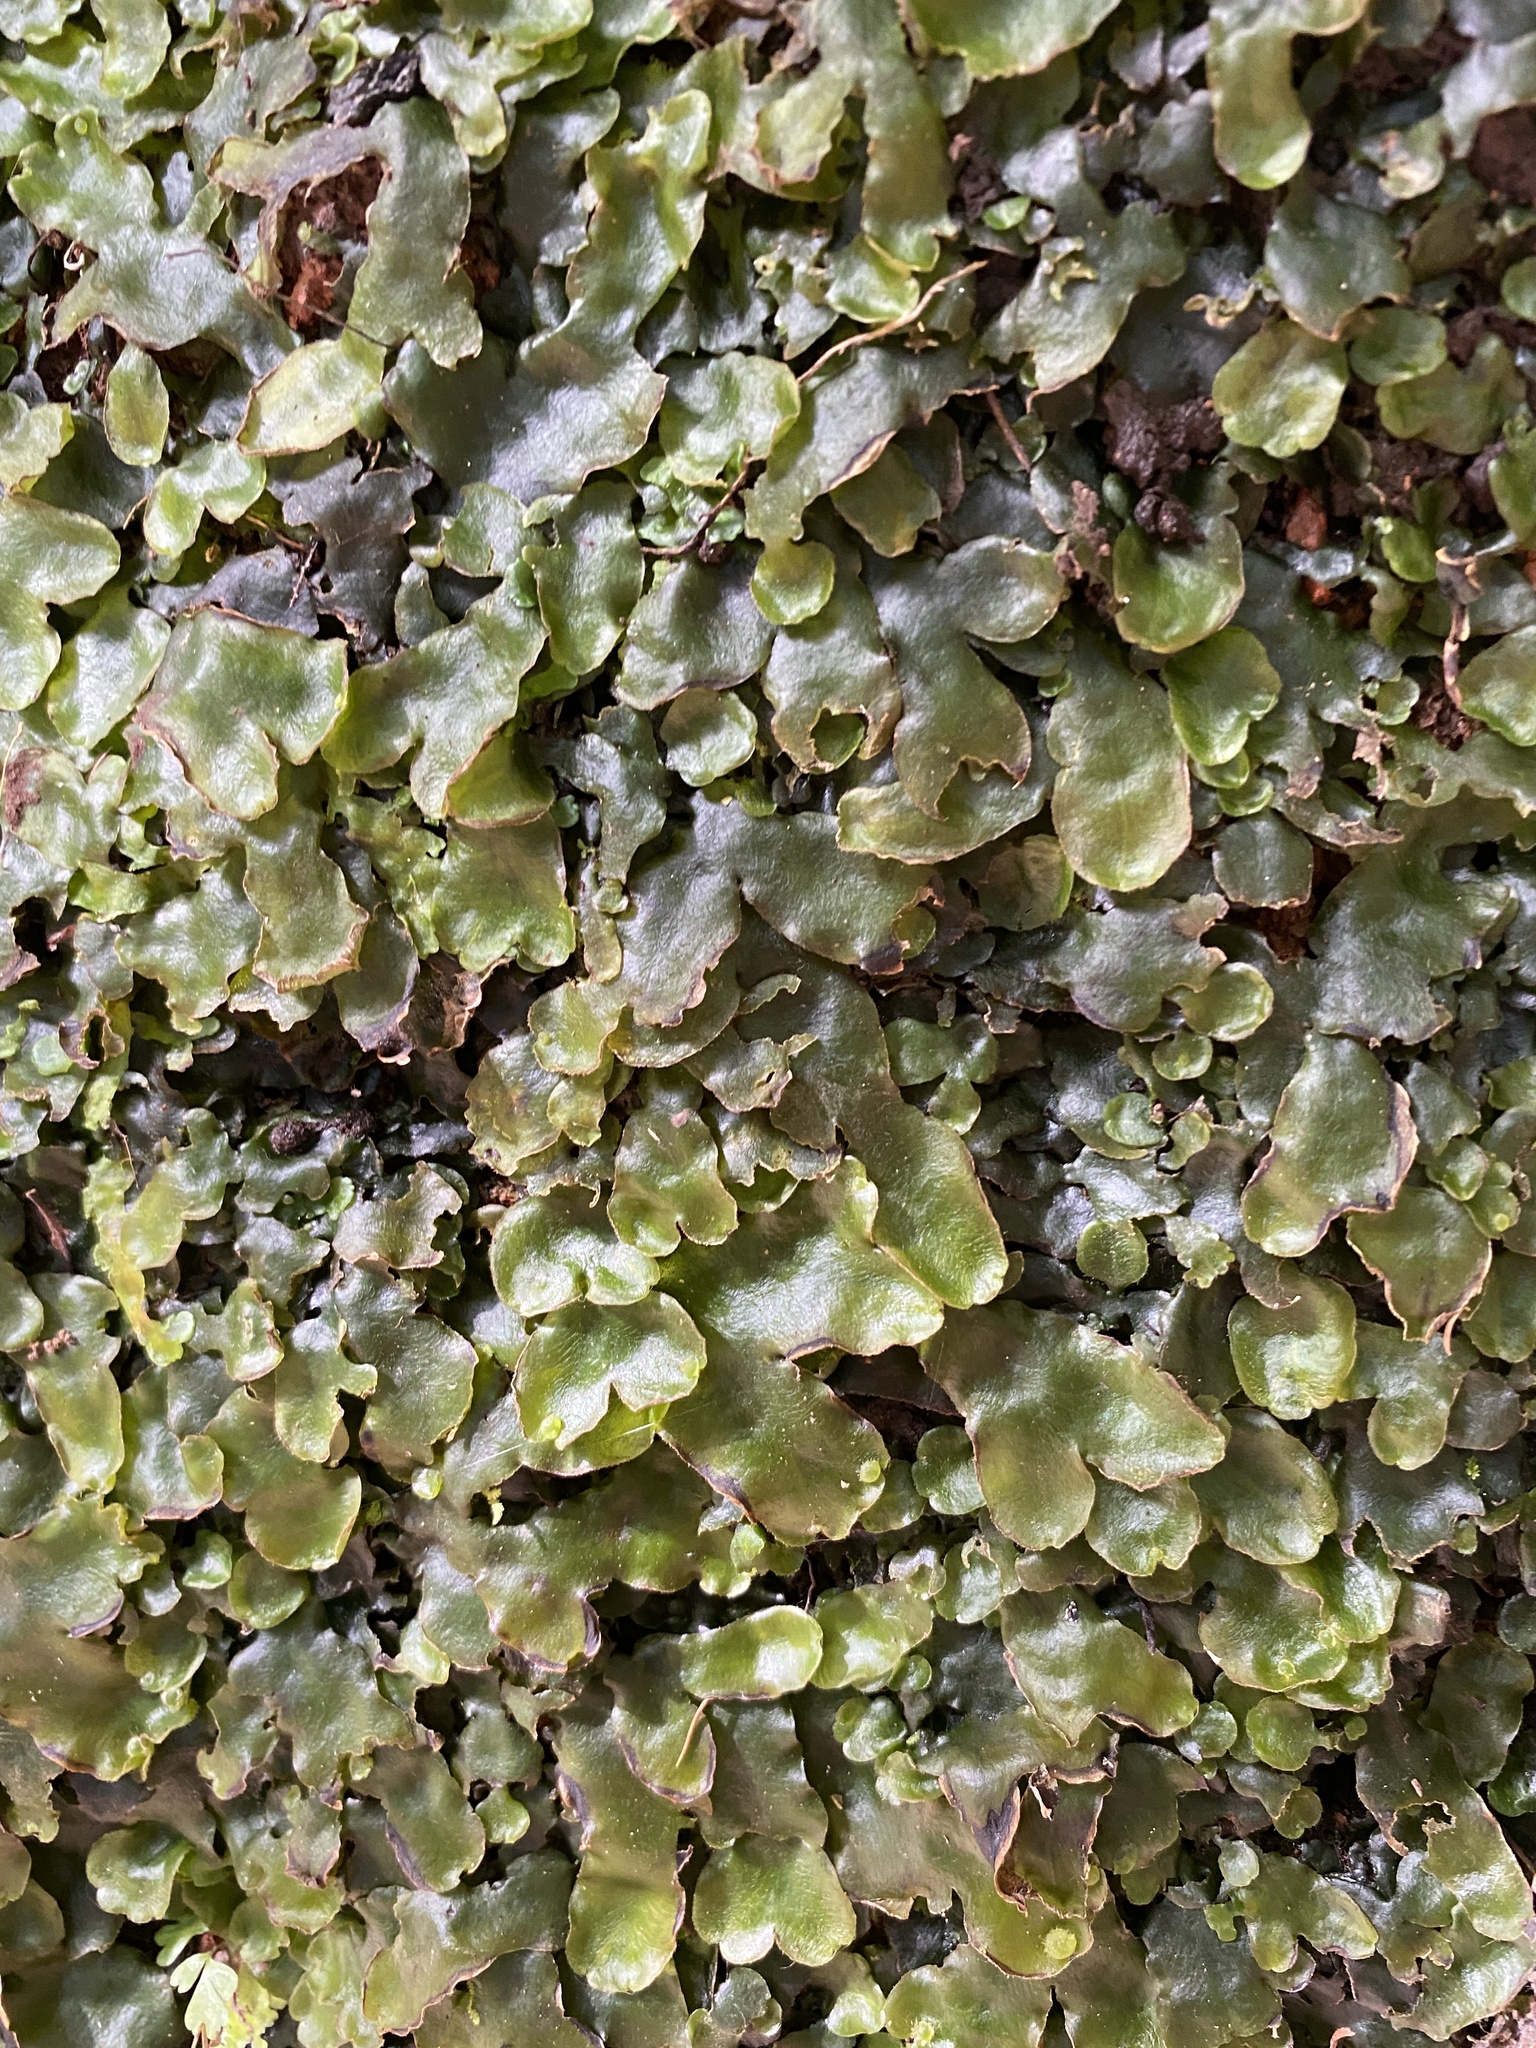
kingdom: Plantae
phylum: Marchantiophyta
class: Marchantiopsida
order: Marchantiales
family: Dumortieraceae
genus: Dumortiera
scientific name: Dumortiera hirsuta
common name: Dumortier's liverwort
